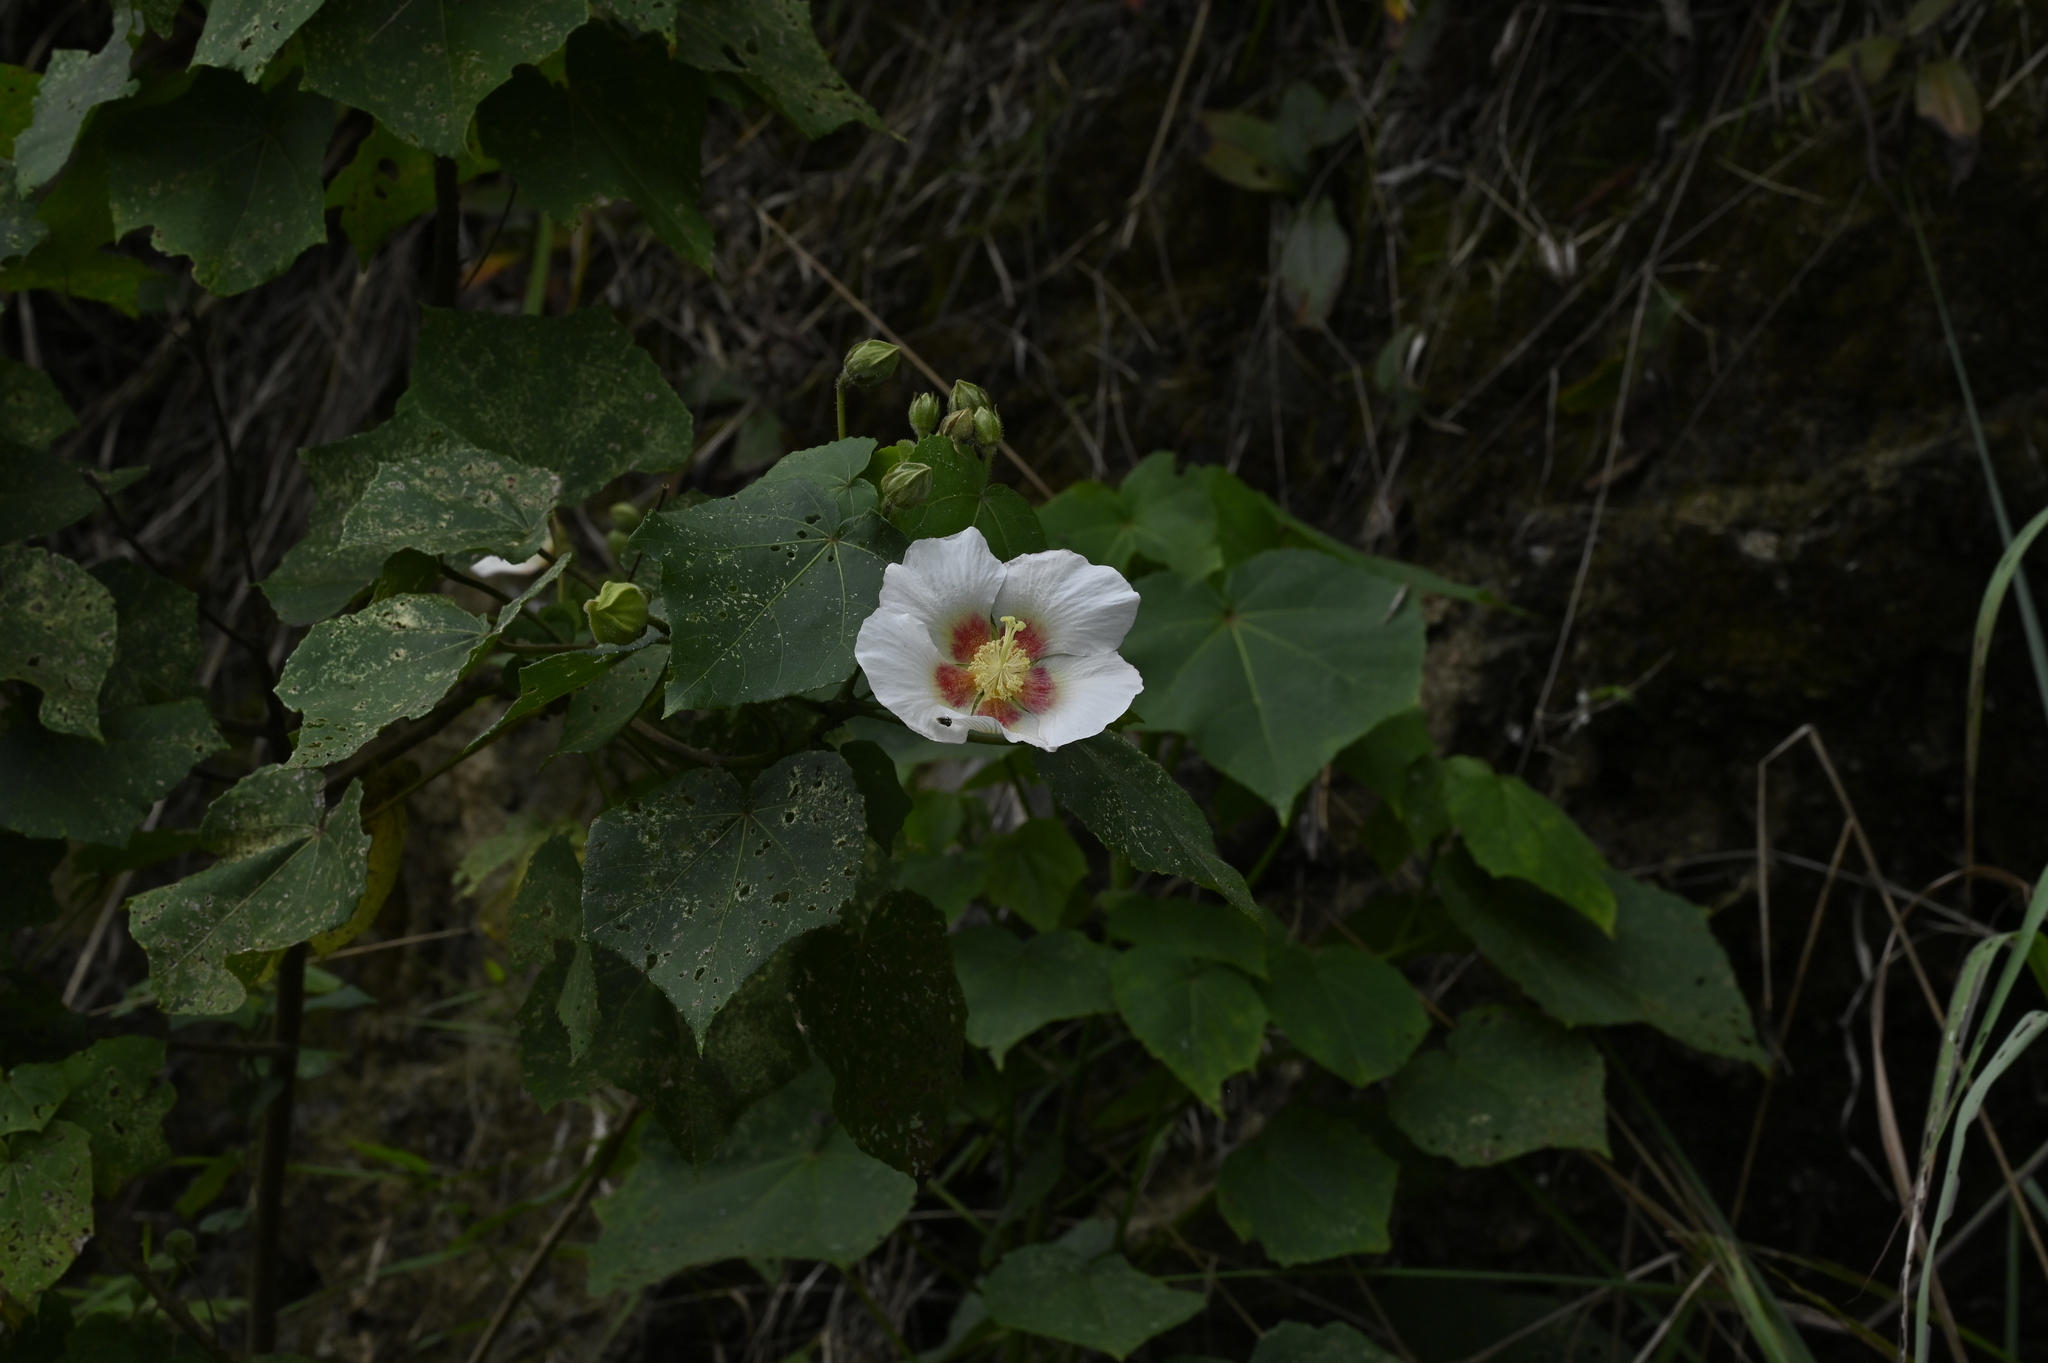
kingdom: Plantae
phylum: Tracheophyta
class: Magnoliopsida
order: Malvales
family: Malvaceae
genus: Hibiscus
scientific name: Hibiscus taiwanensis
